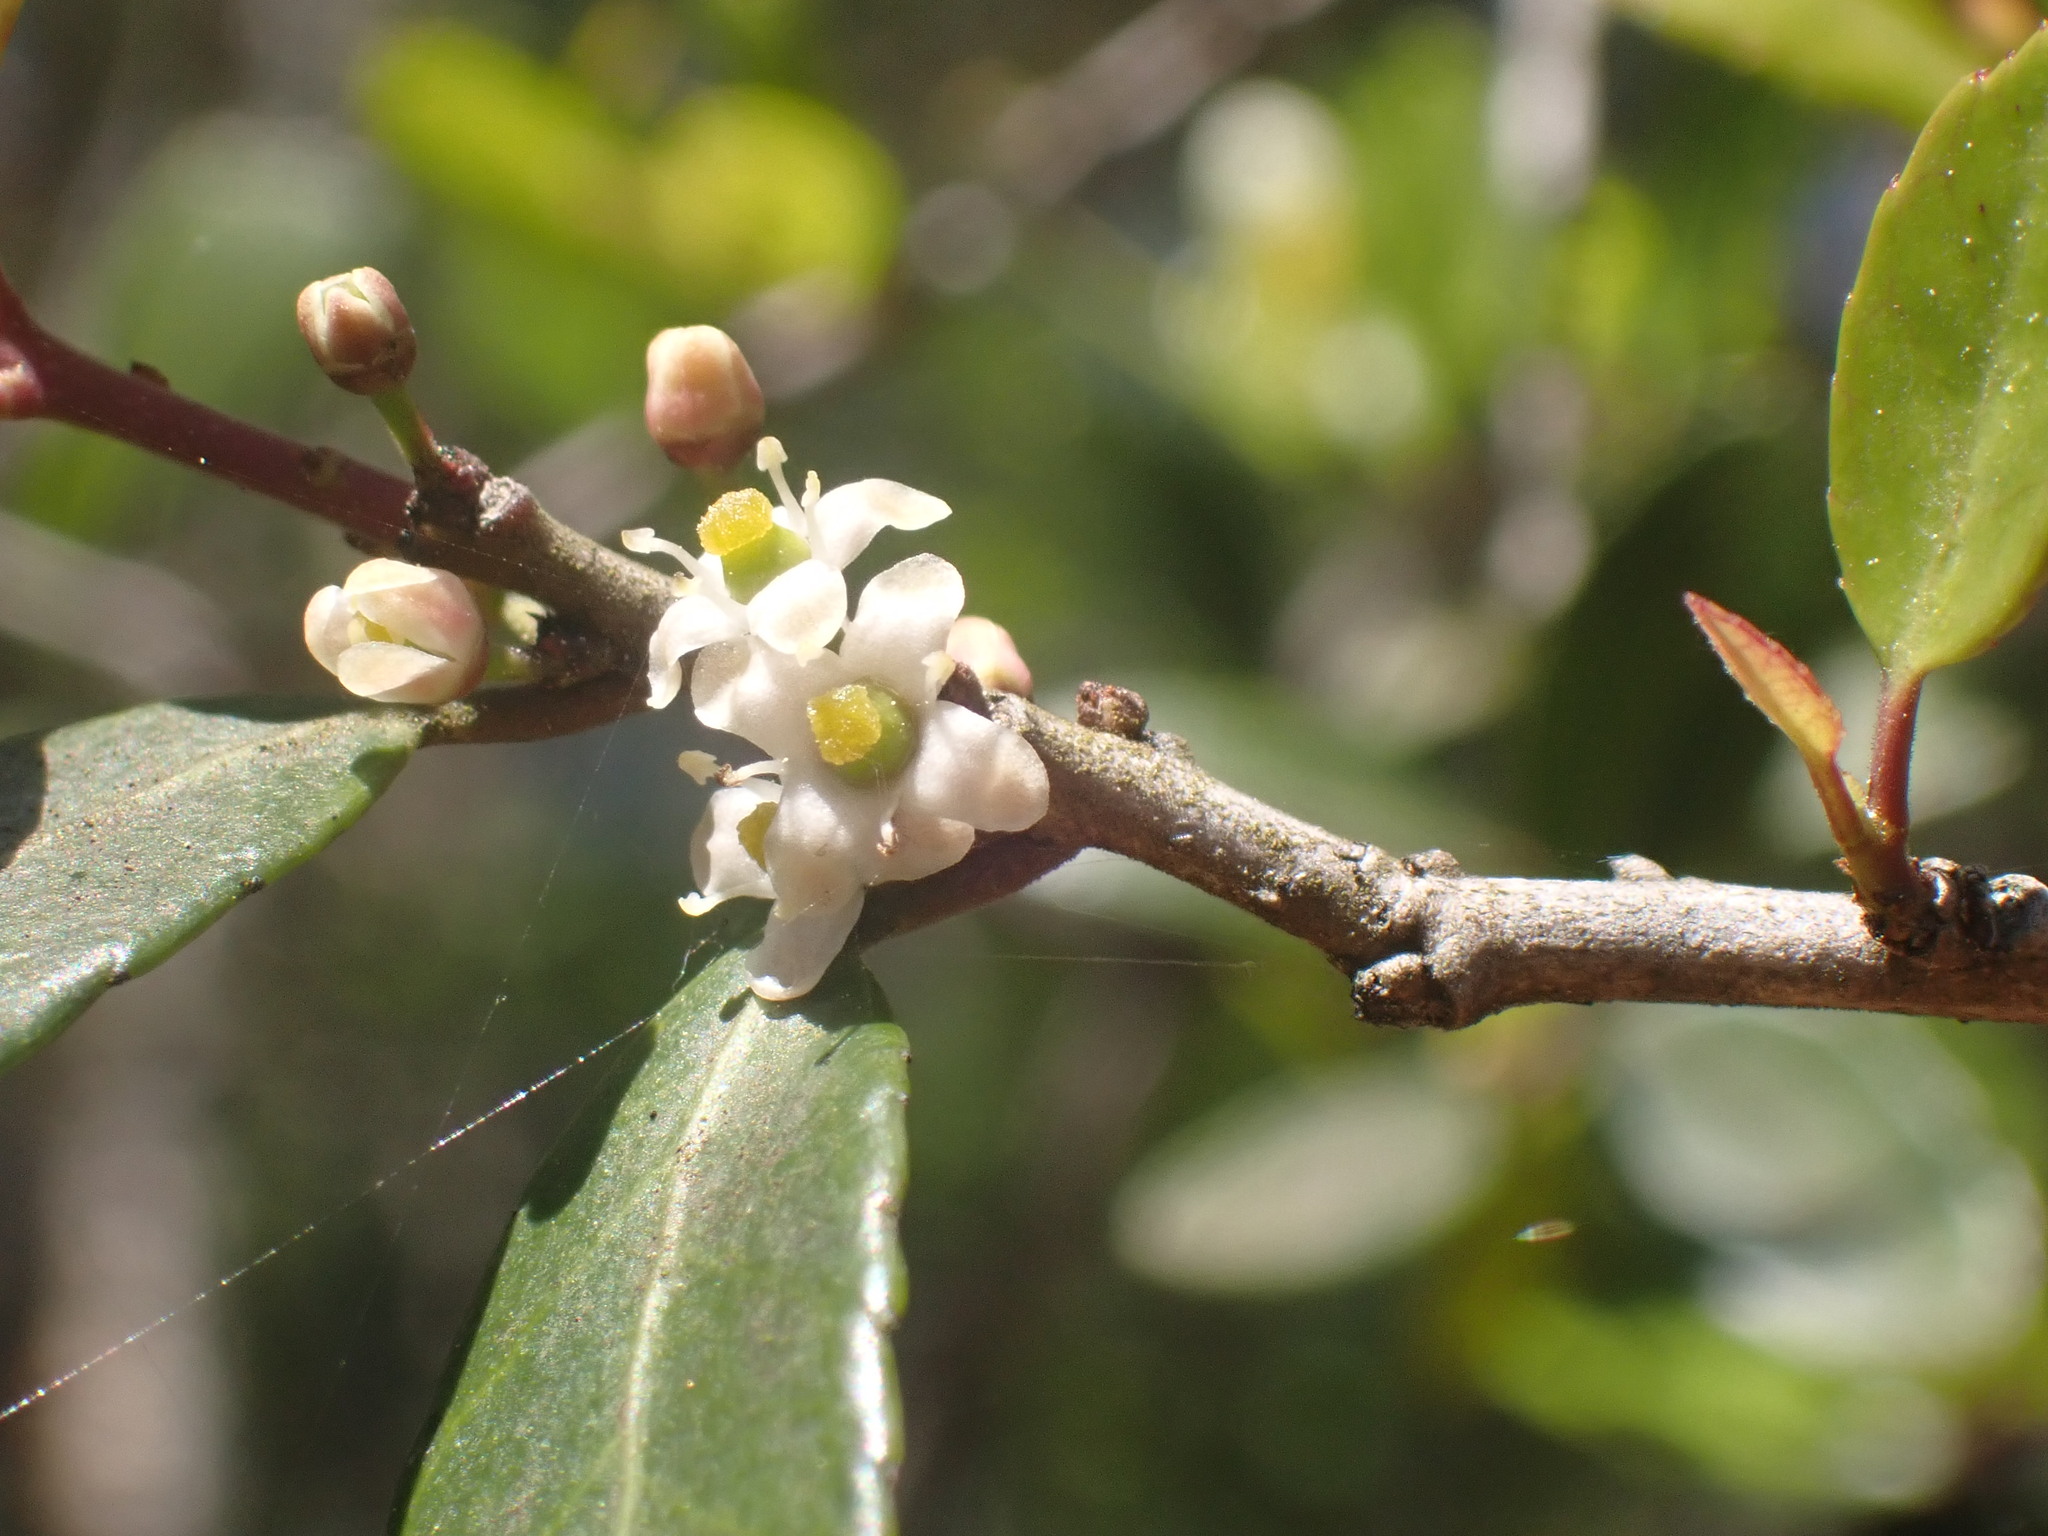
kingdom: Plantae
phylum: Tracheophyta
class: Magnoliopsida
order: Aquifoliales
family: Aquifoliaceae
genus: Ilex
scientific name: Ilex vomitoria
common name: Yaupon holly
